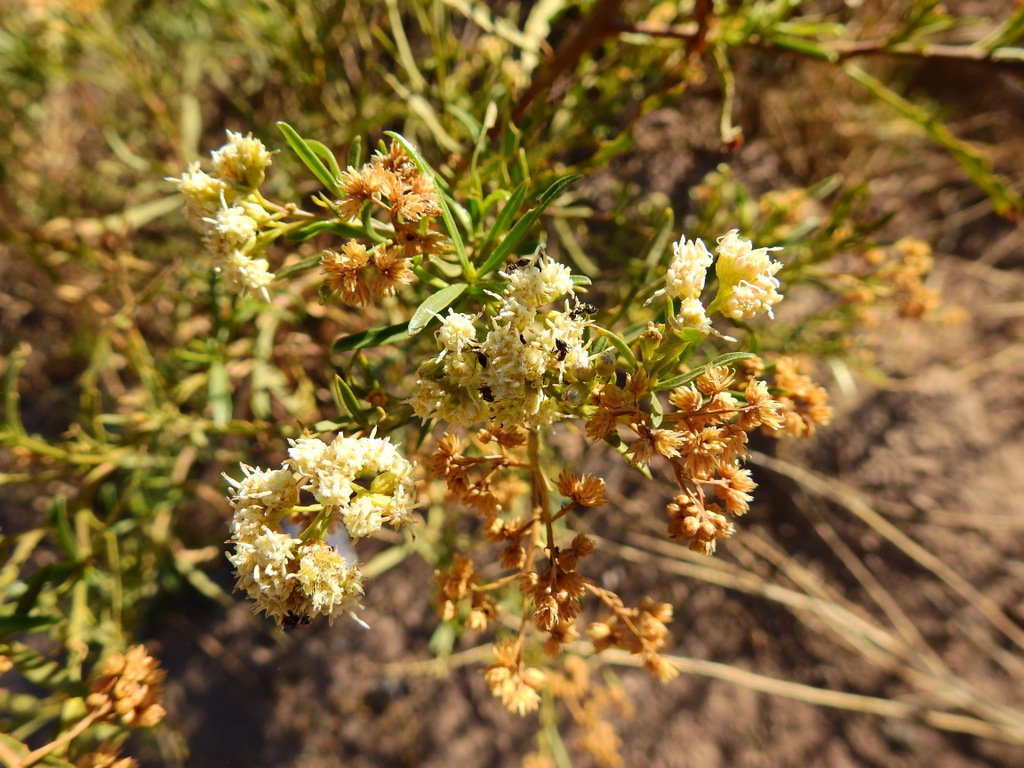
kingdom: Plantae
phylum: Tracheophyta
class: Magnoliopsida
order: Asterales
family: Asteraceae
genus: Baccharis
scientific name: Baccharis salicifolia
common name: Sticky baccharis
